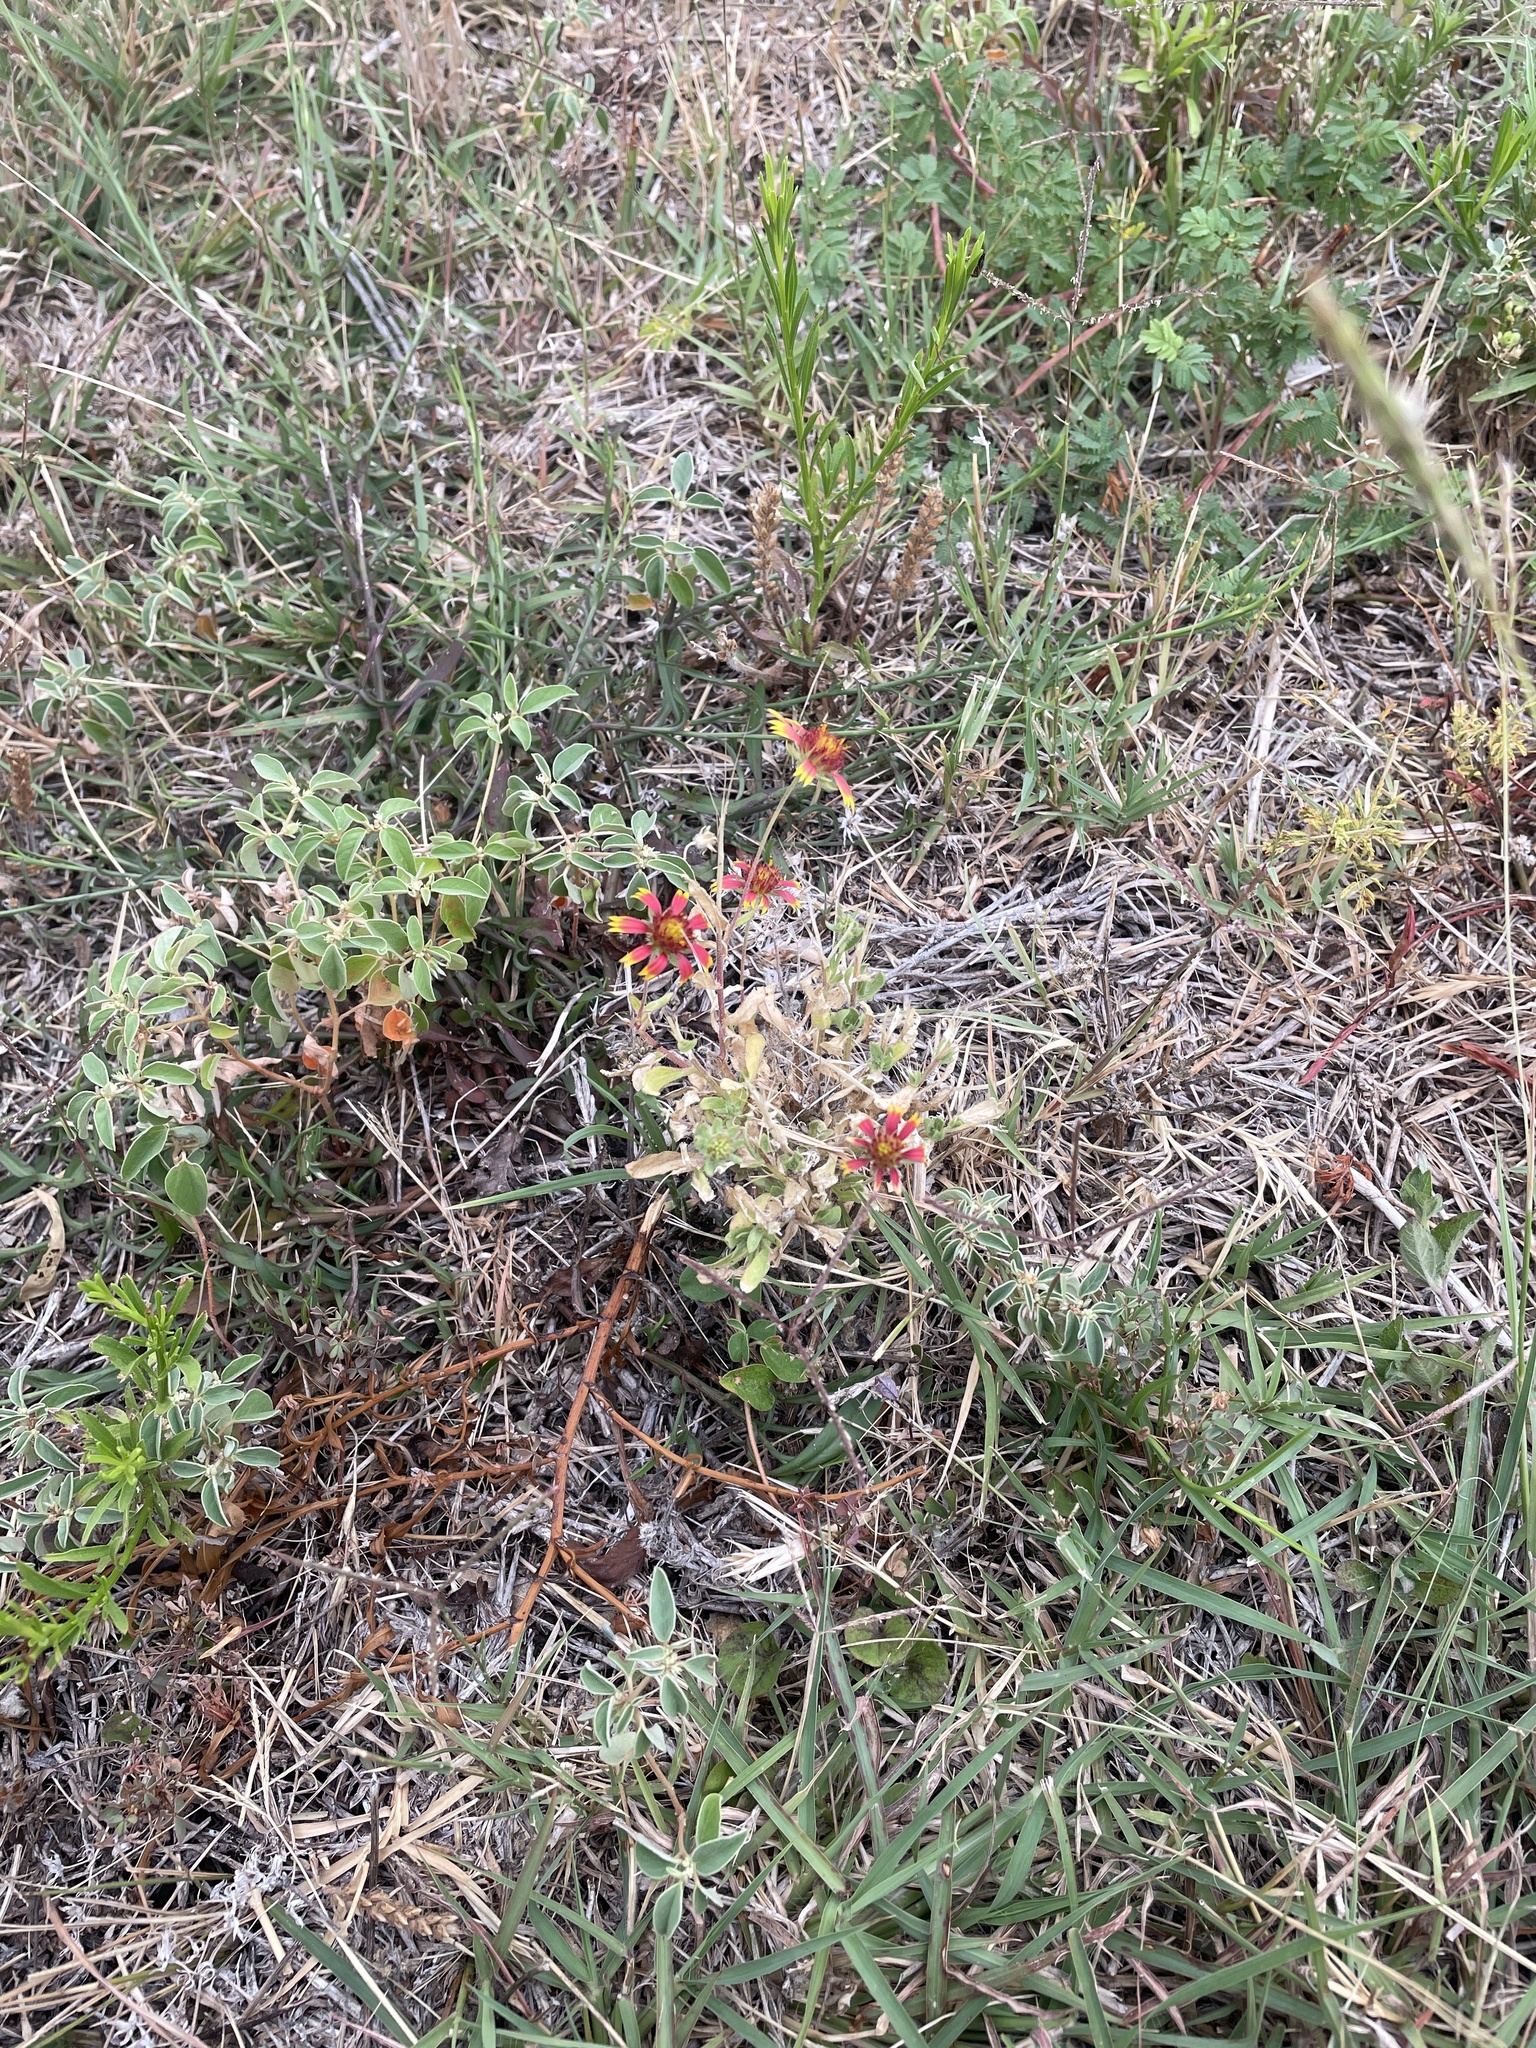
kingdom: Plantae
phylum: Tracheophyta
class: Magnoliopsida
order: Asterales
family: Asteraceae
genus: Gaillardia
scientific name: Gaillardia pulchella
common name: Firewheel
